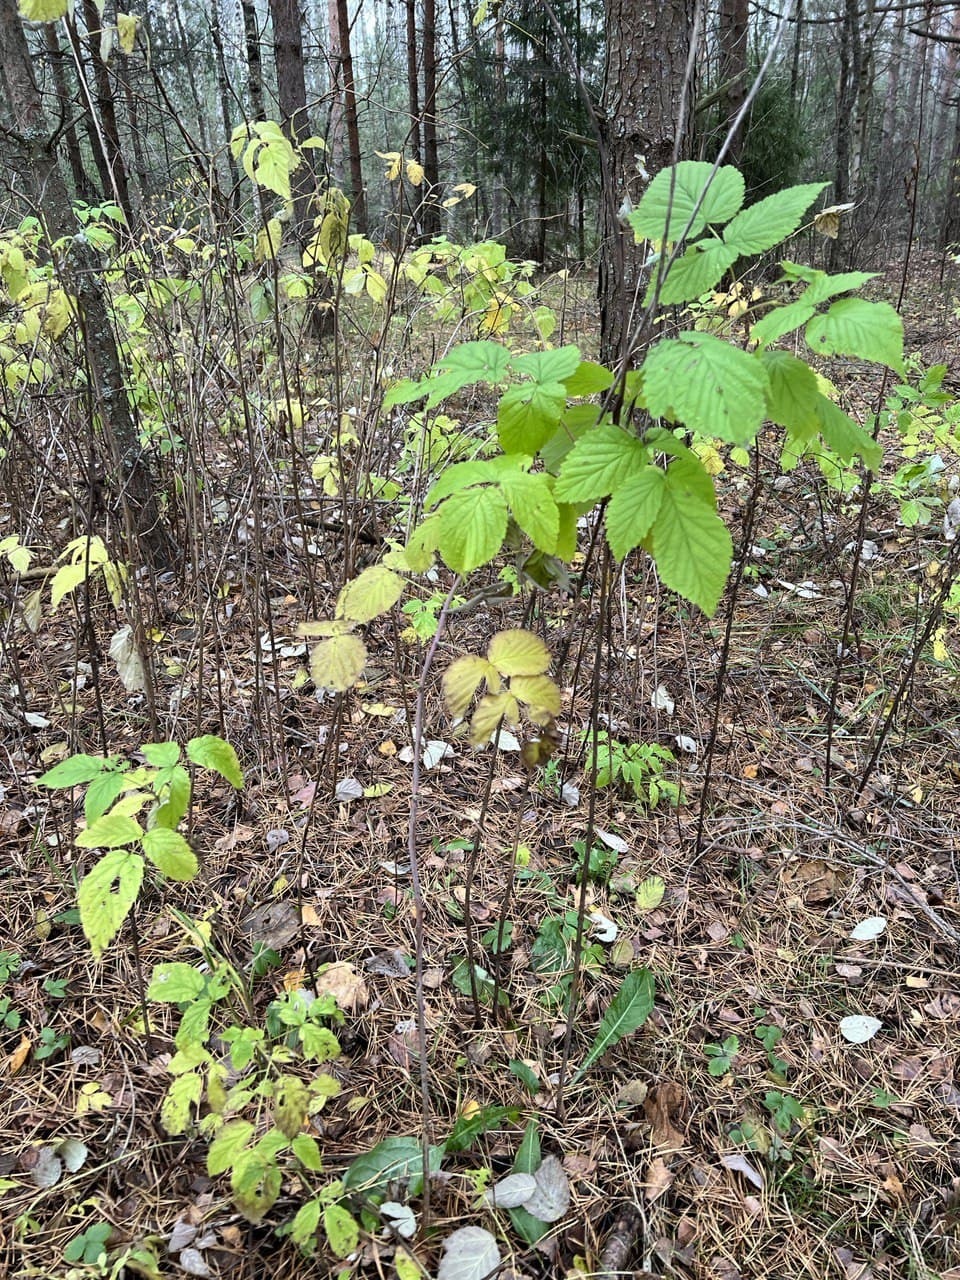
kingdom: Plantae
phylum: Tracheophyta
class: Magnoliopsida
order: Rosales
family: Rosaceae
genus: Rubus
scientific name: Rubus idaeus
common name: Raspberry
